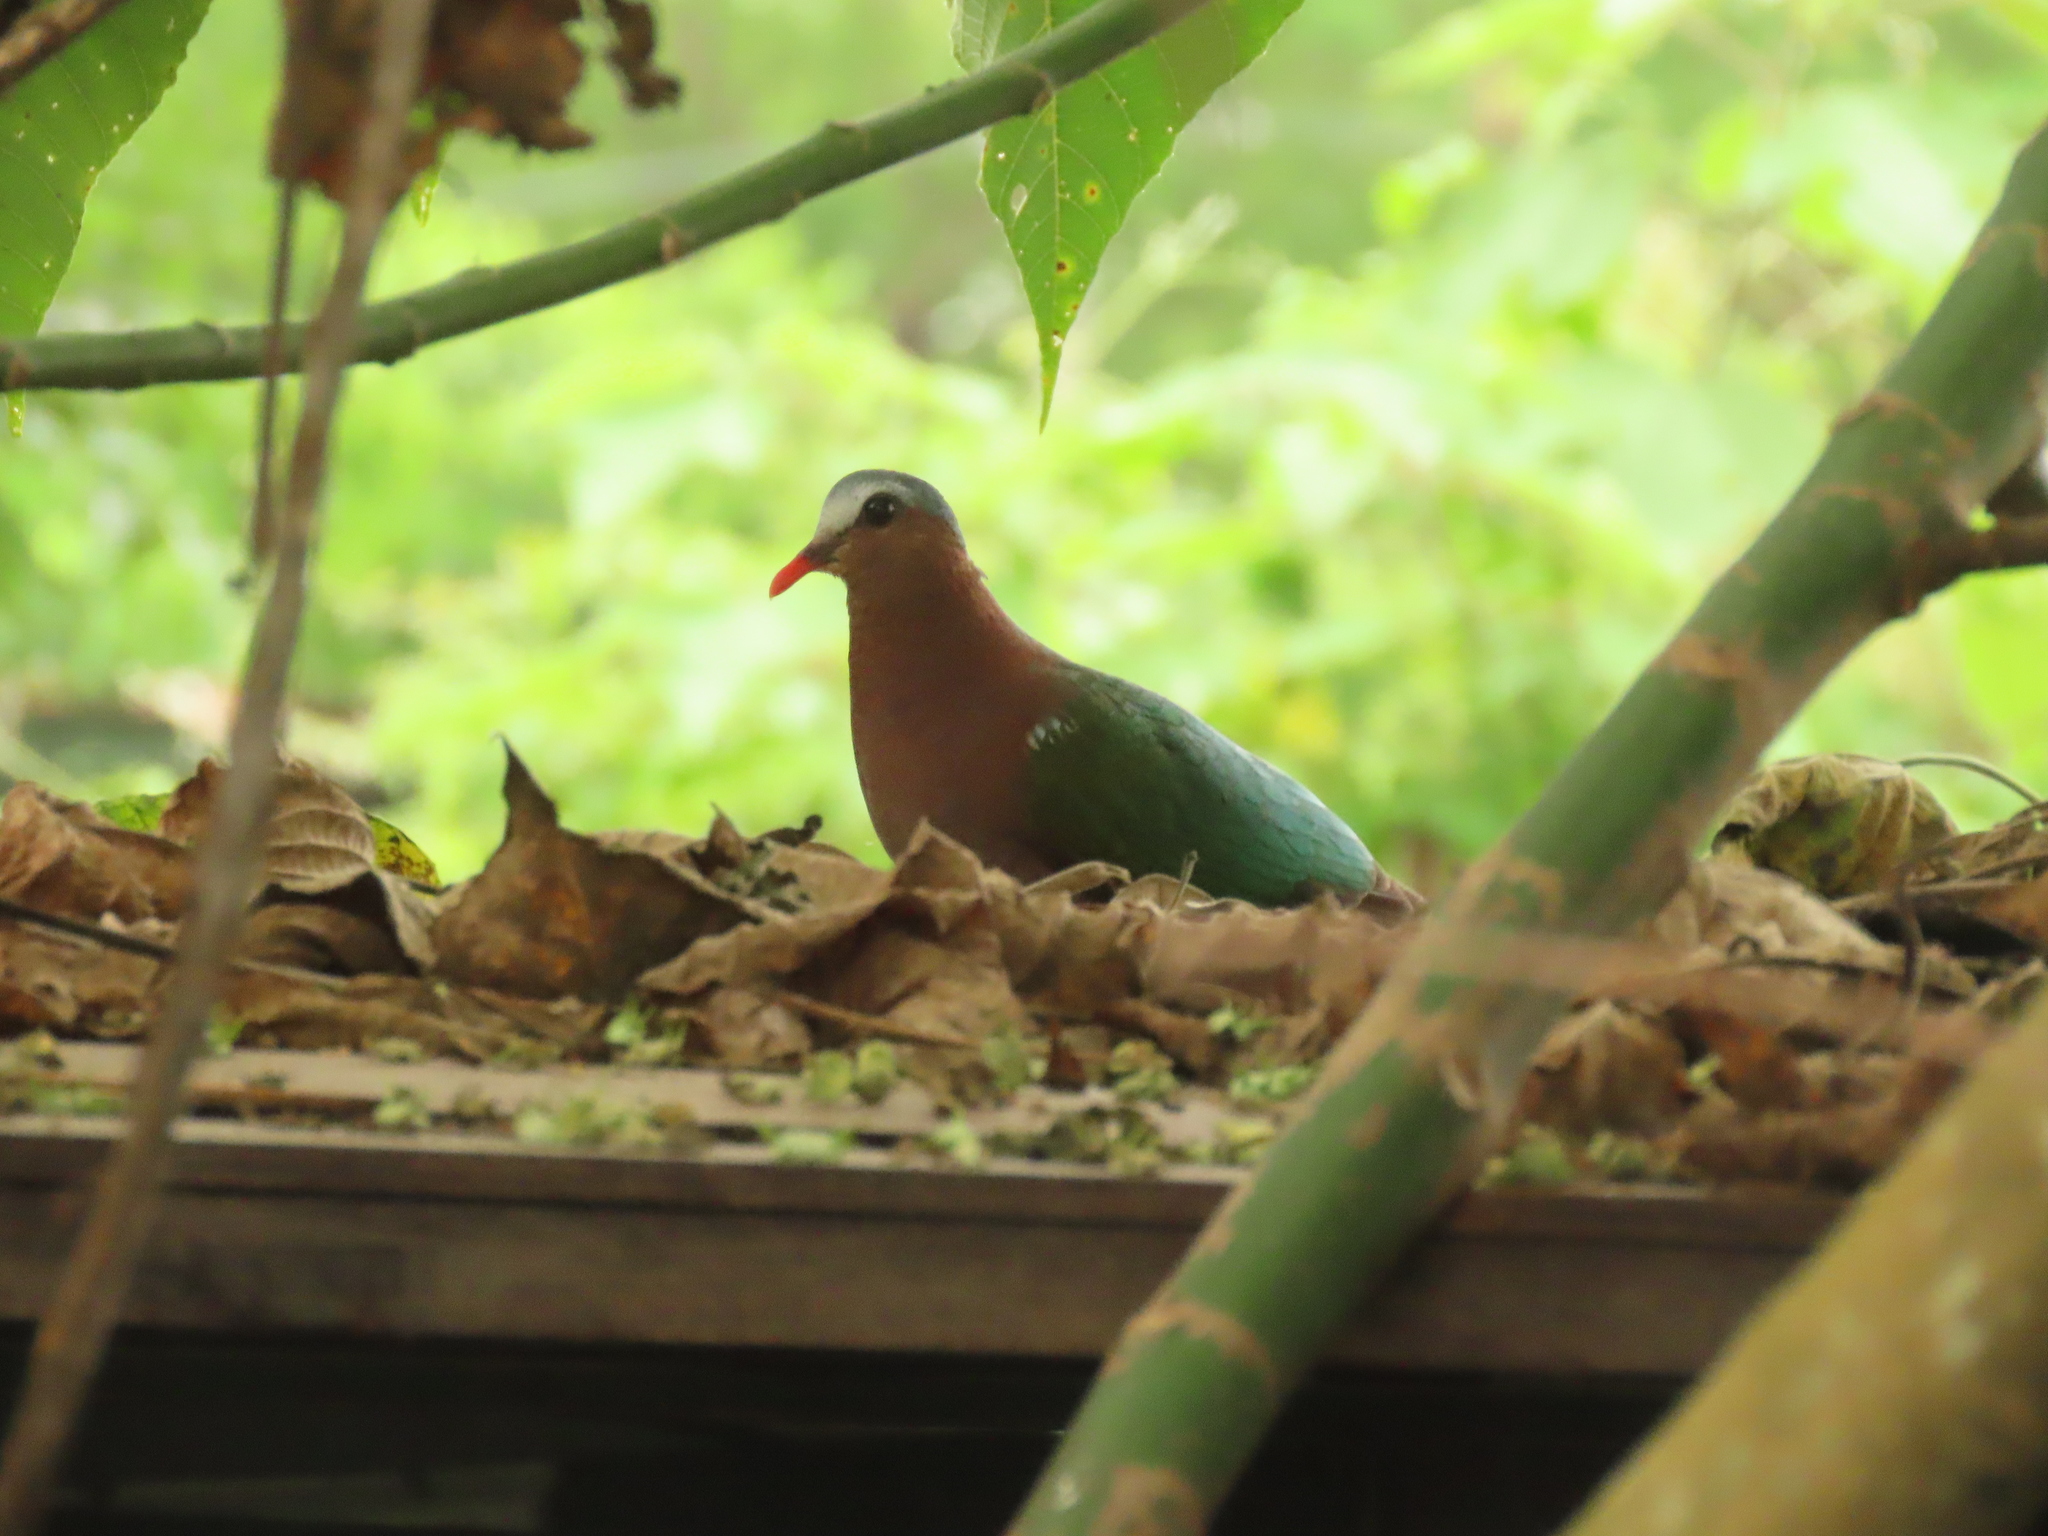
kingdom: Animalia
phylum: Chordata
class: Aves
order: Columbiformes
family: Columbidae
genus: Chalcophaps
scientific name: Chalcophaps indica
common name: Common emerald dove
